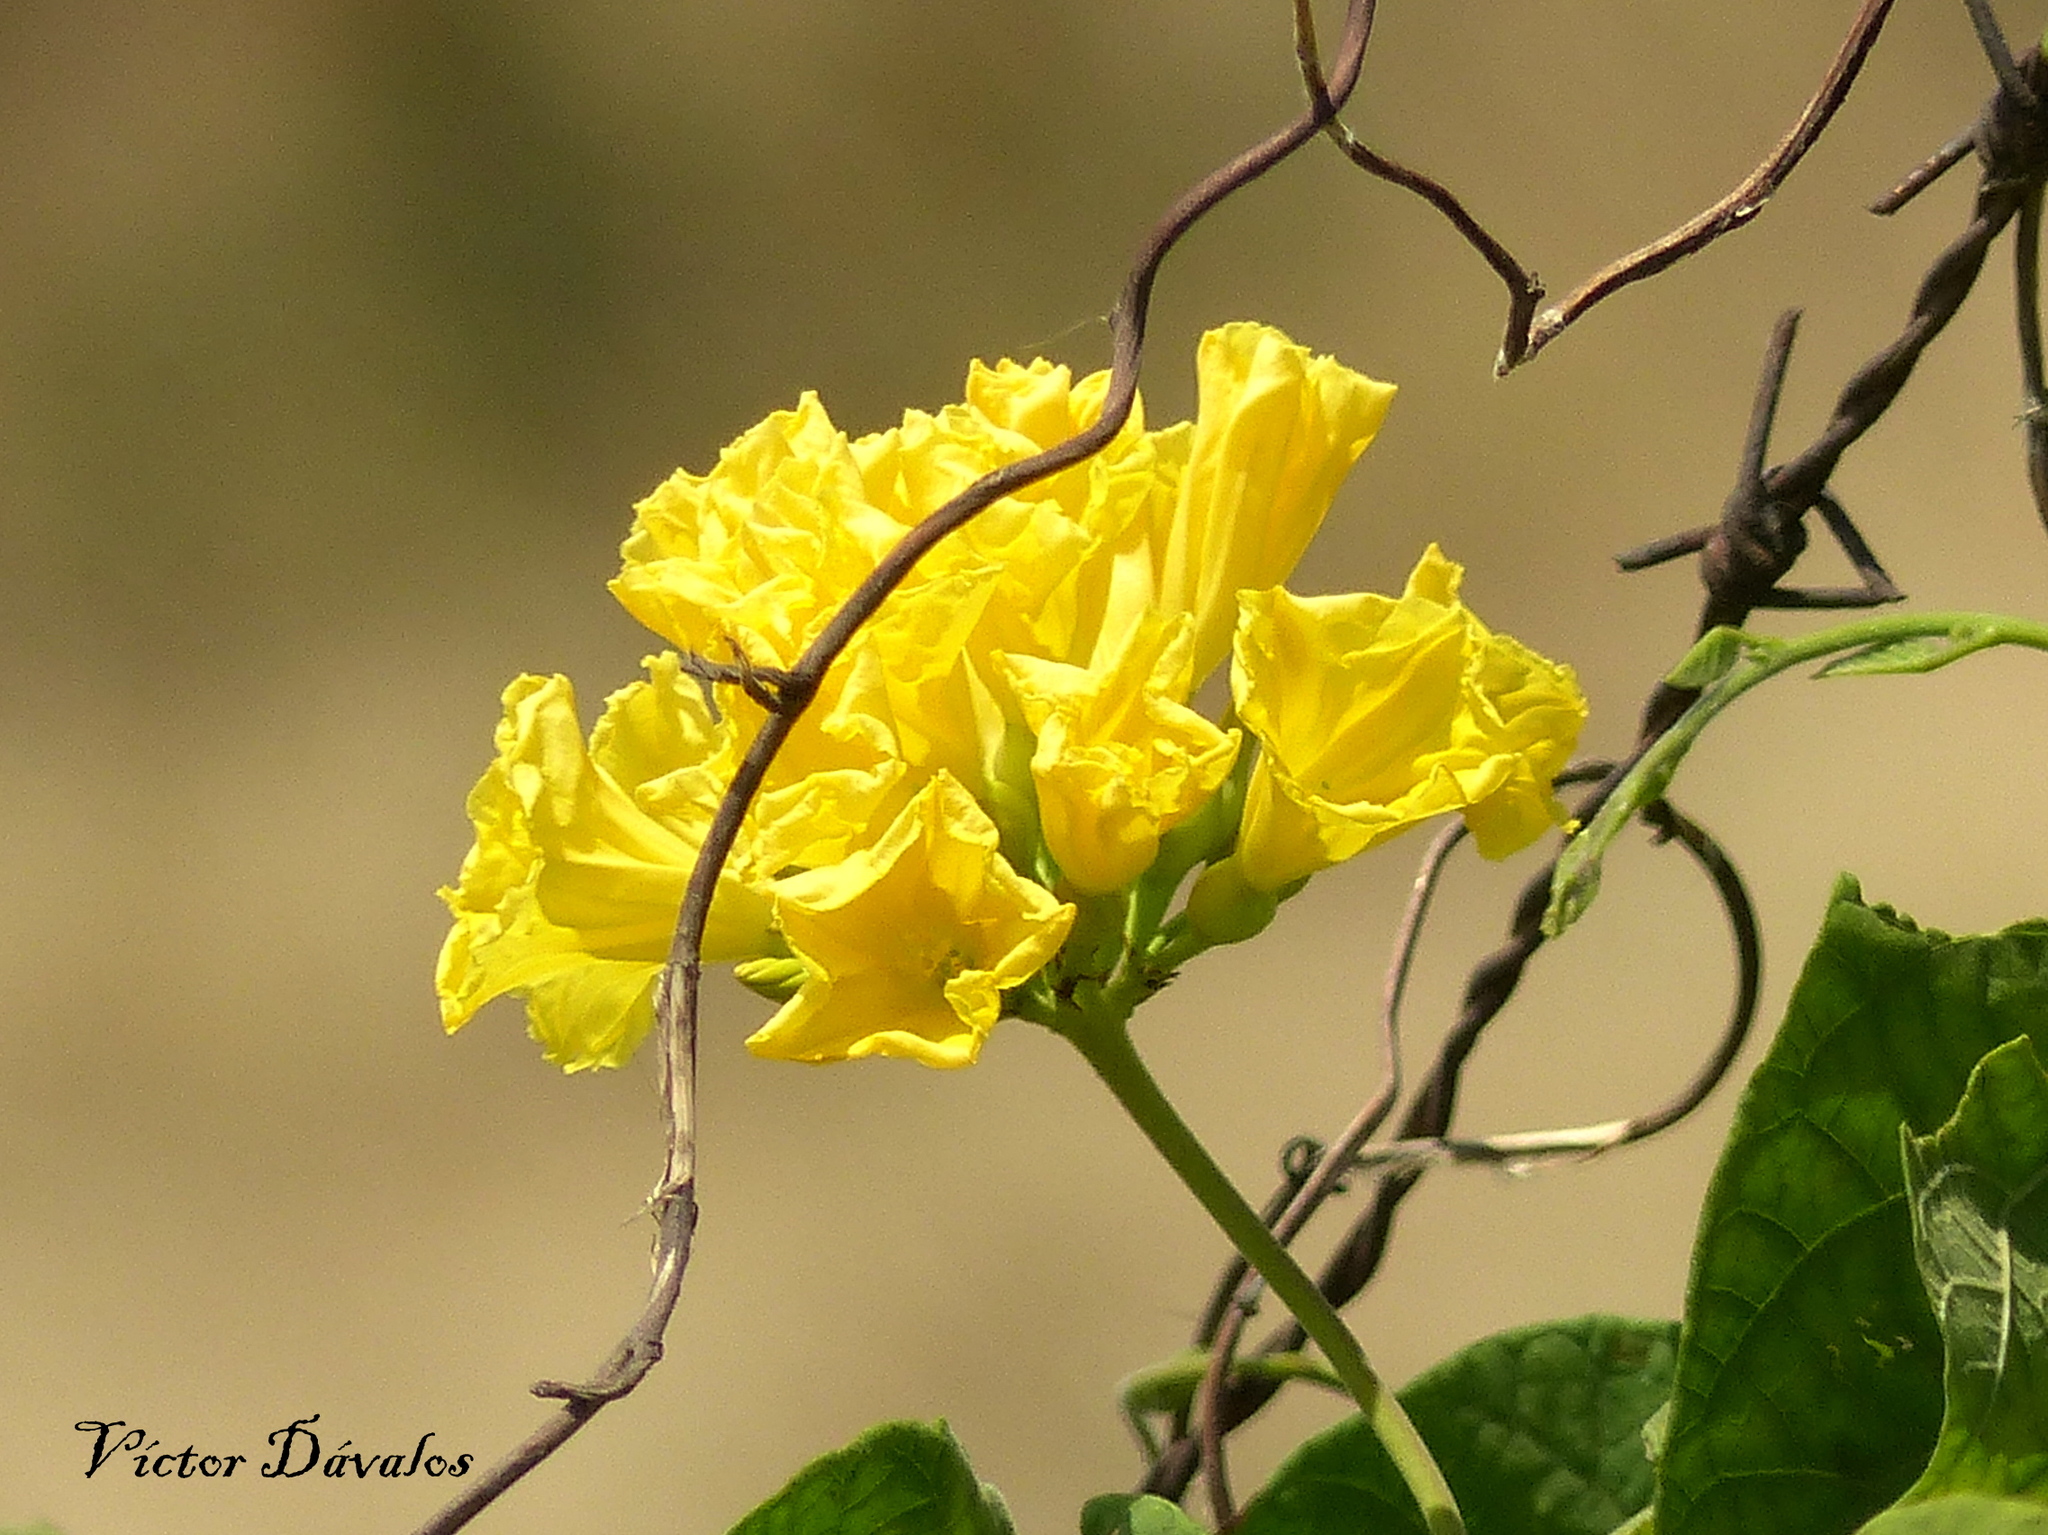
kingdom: Plantae
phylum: Tracheophyta
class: Magnoliopsida
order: Solanales
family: Convolvulaceae
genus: Camonea
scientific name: Camonea umbellata
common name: Hogvine
